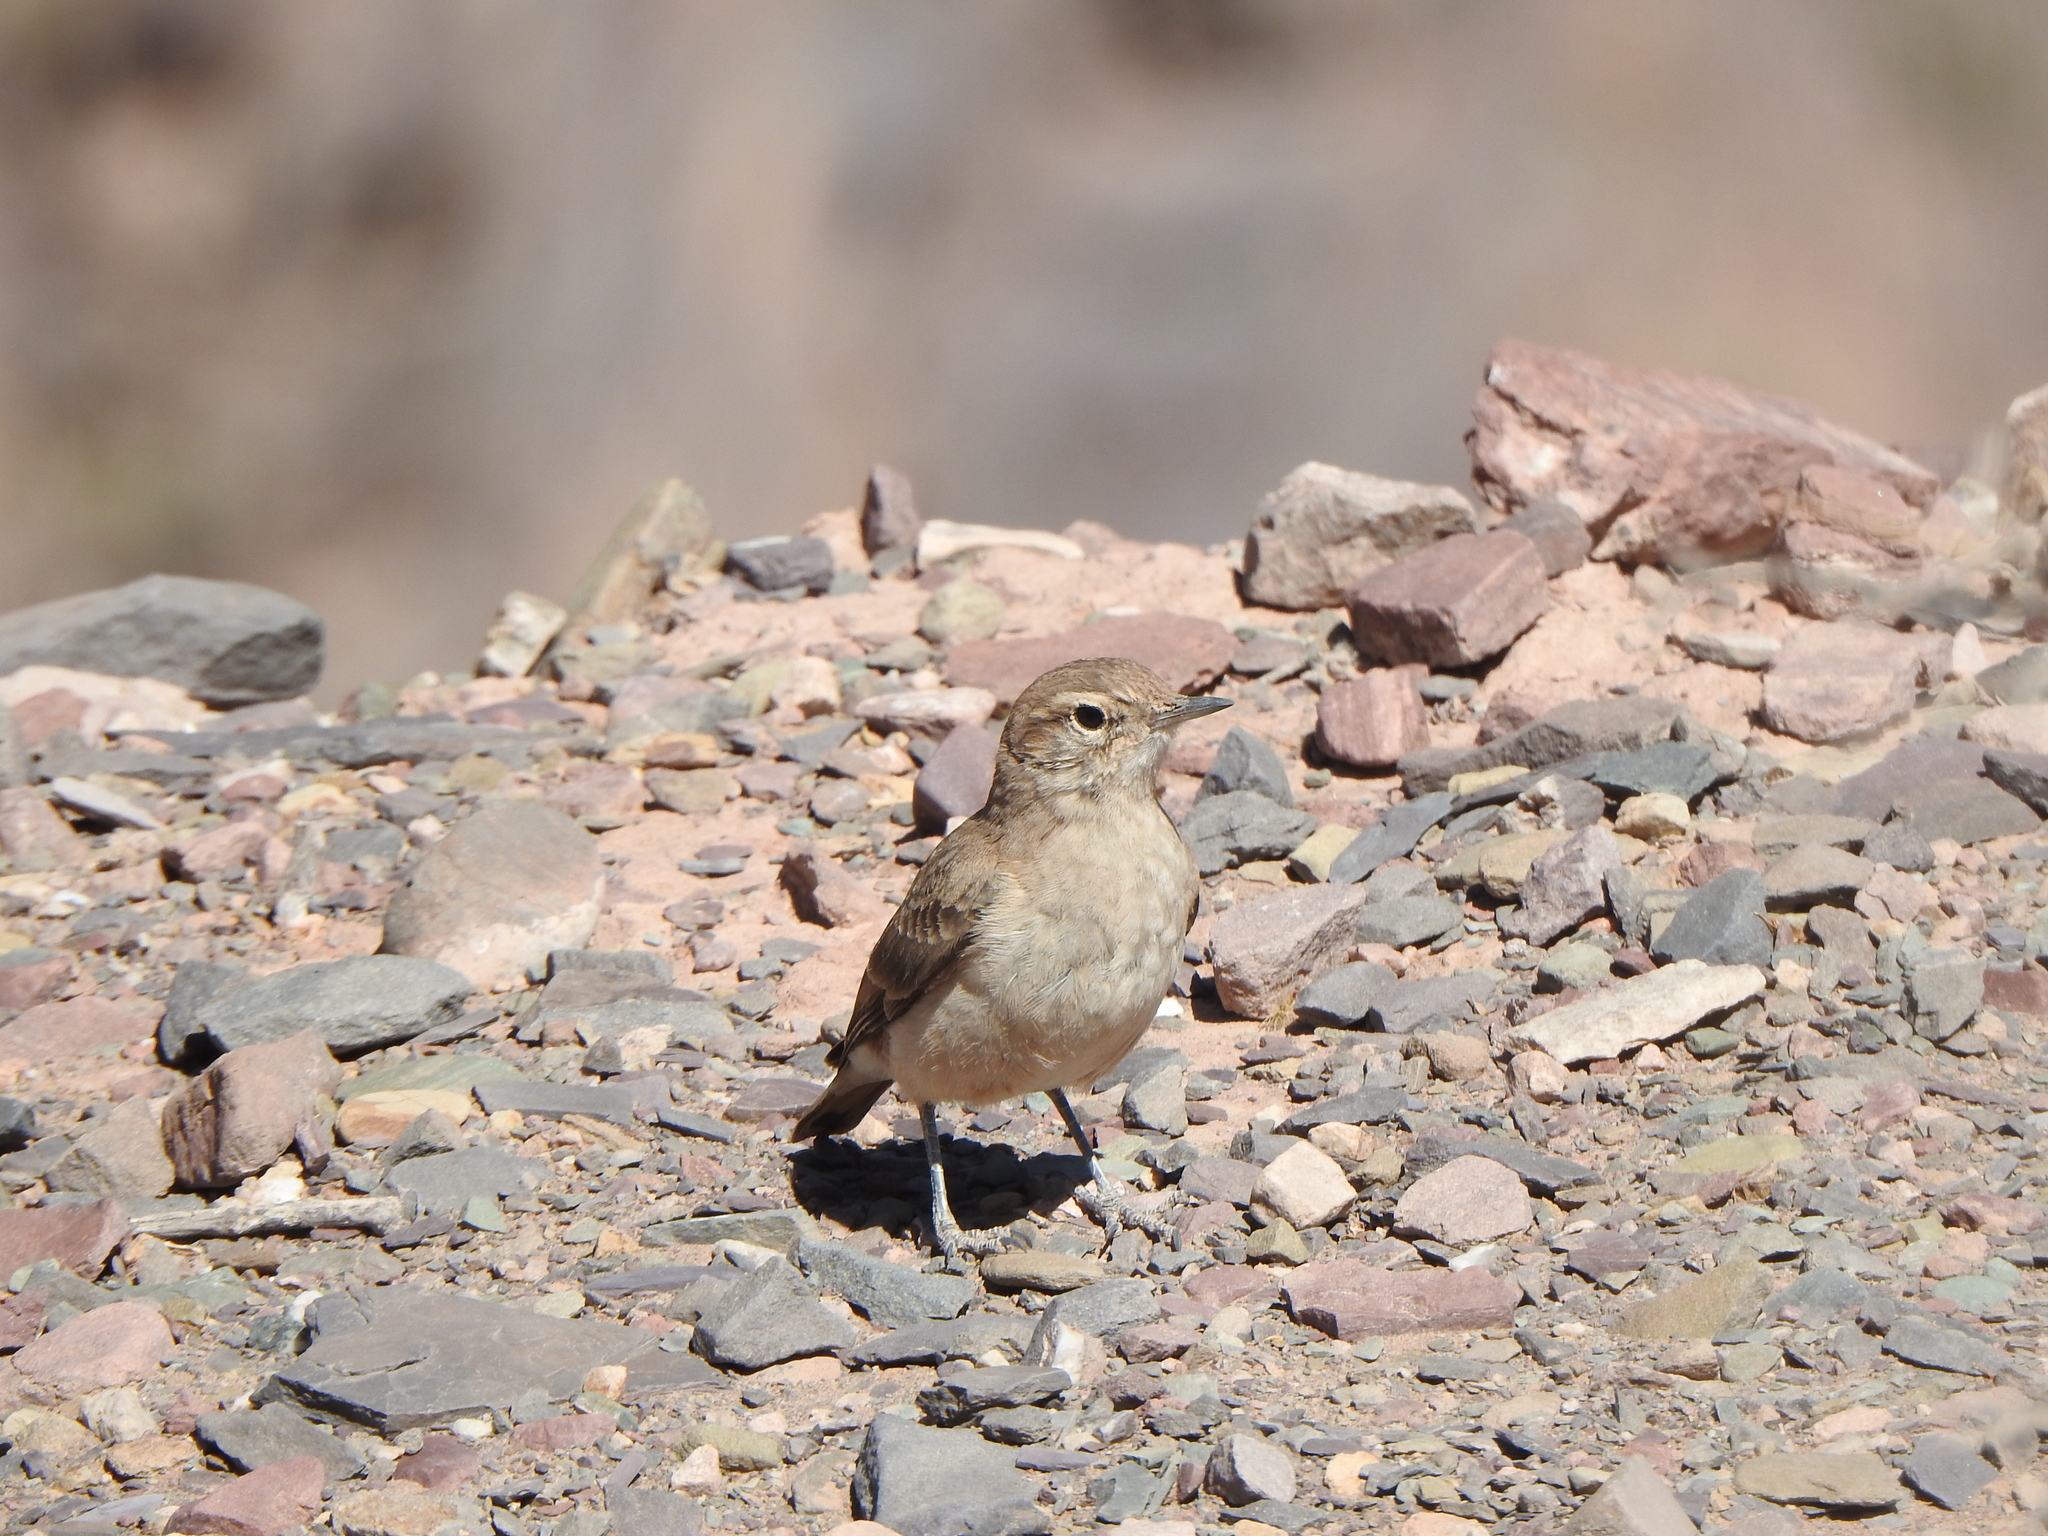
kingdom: Animalia
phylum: Chordata
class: Aves
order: Passeriformes
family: Furnariidae
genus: Geositta
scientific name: Geositta rufipennis
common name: Rufous-banded miner
